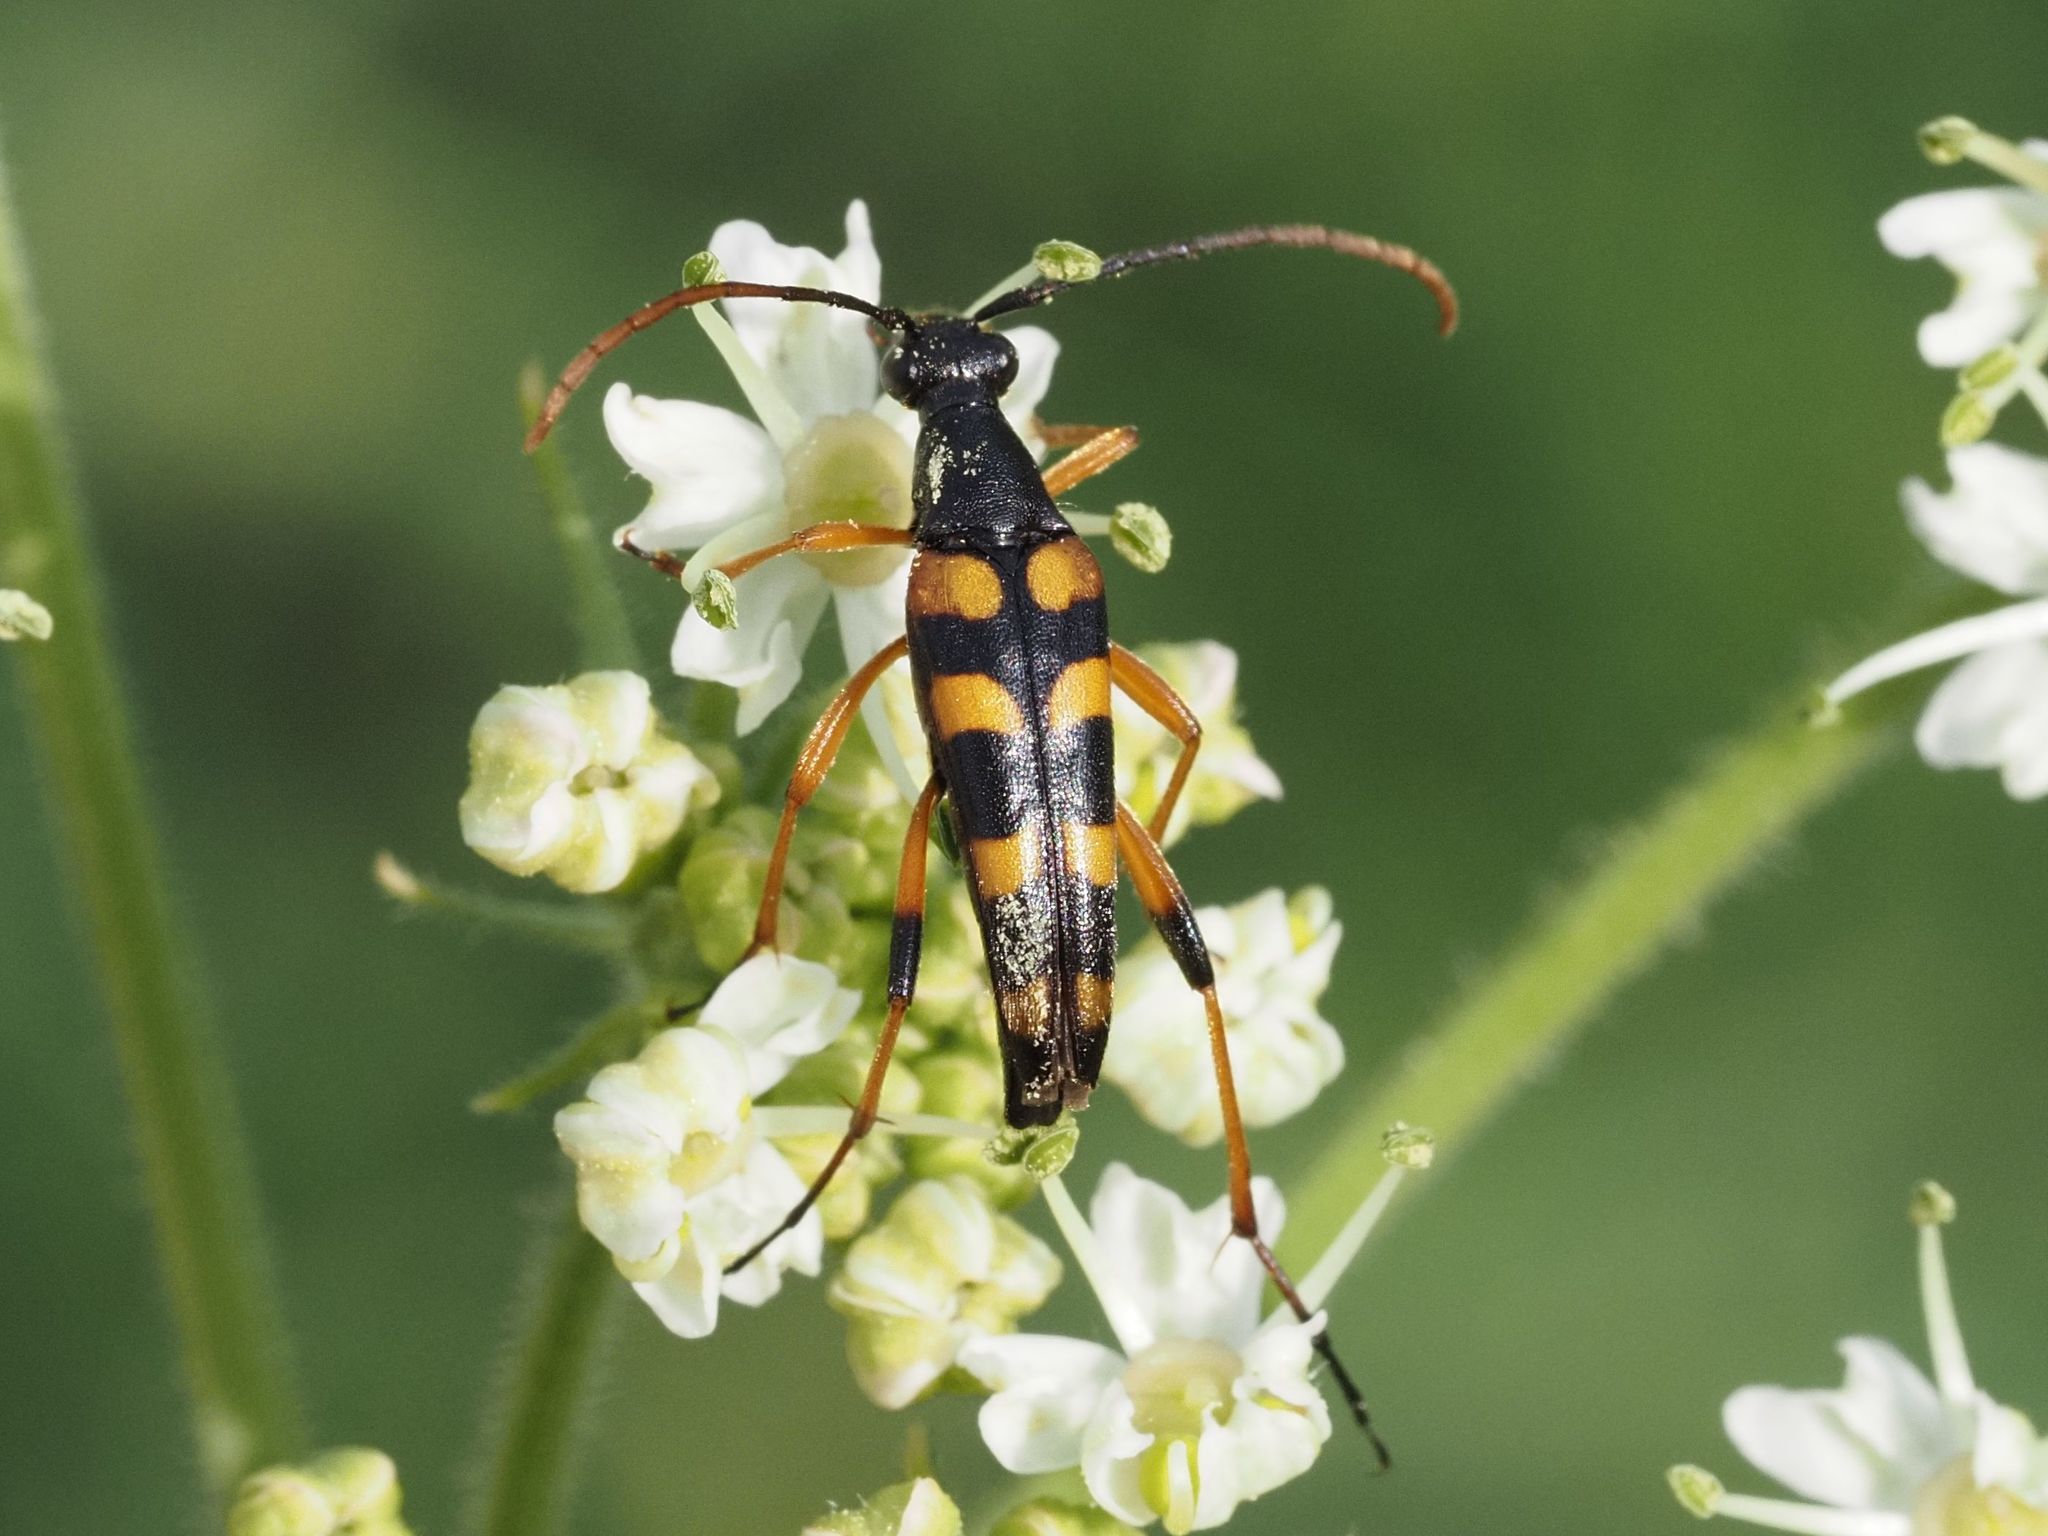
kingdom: Animalia
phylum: Arthropoda
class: Insecta
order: Coleoptera
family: Cerambycidae
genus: Strangalia
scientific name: Strangalia attenuata
